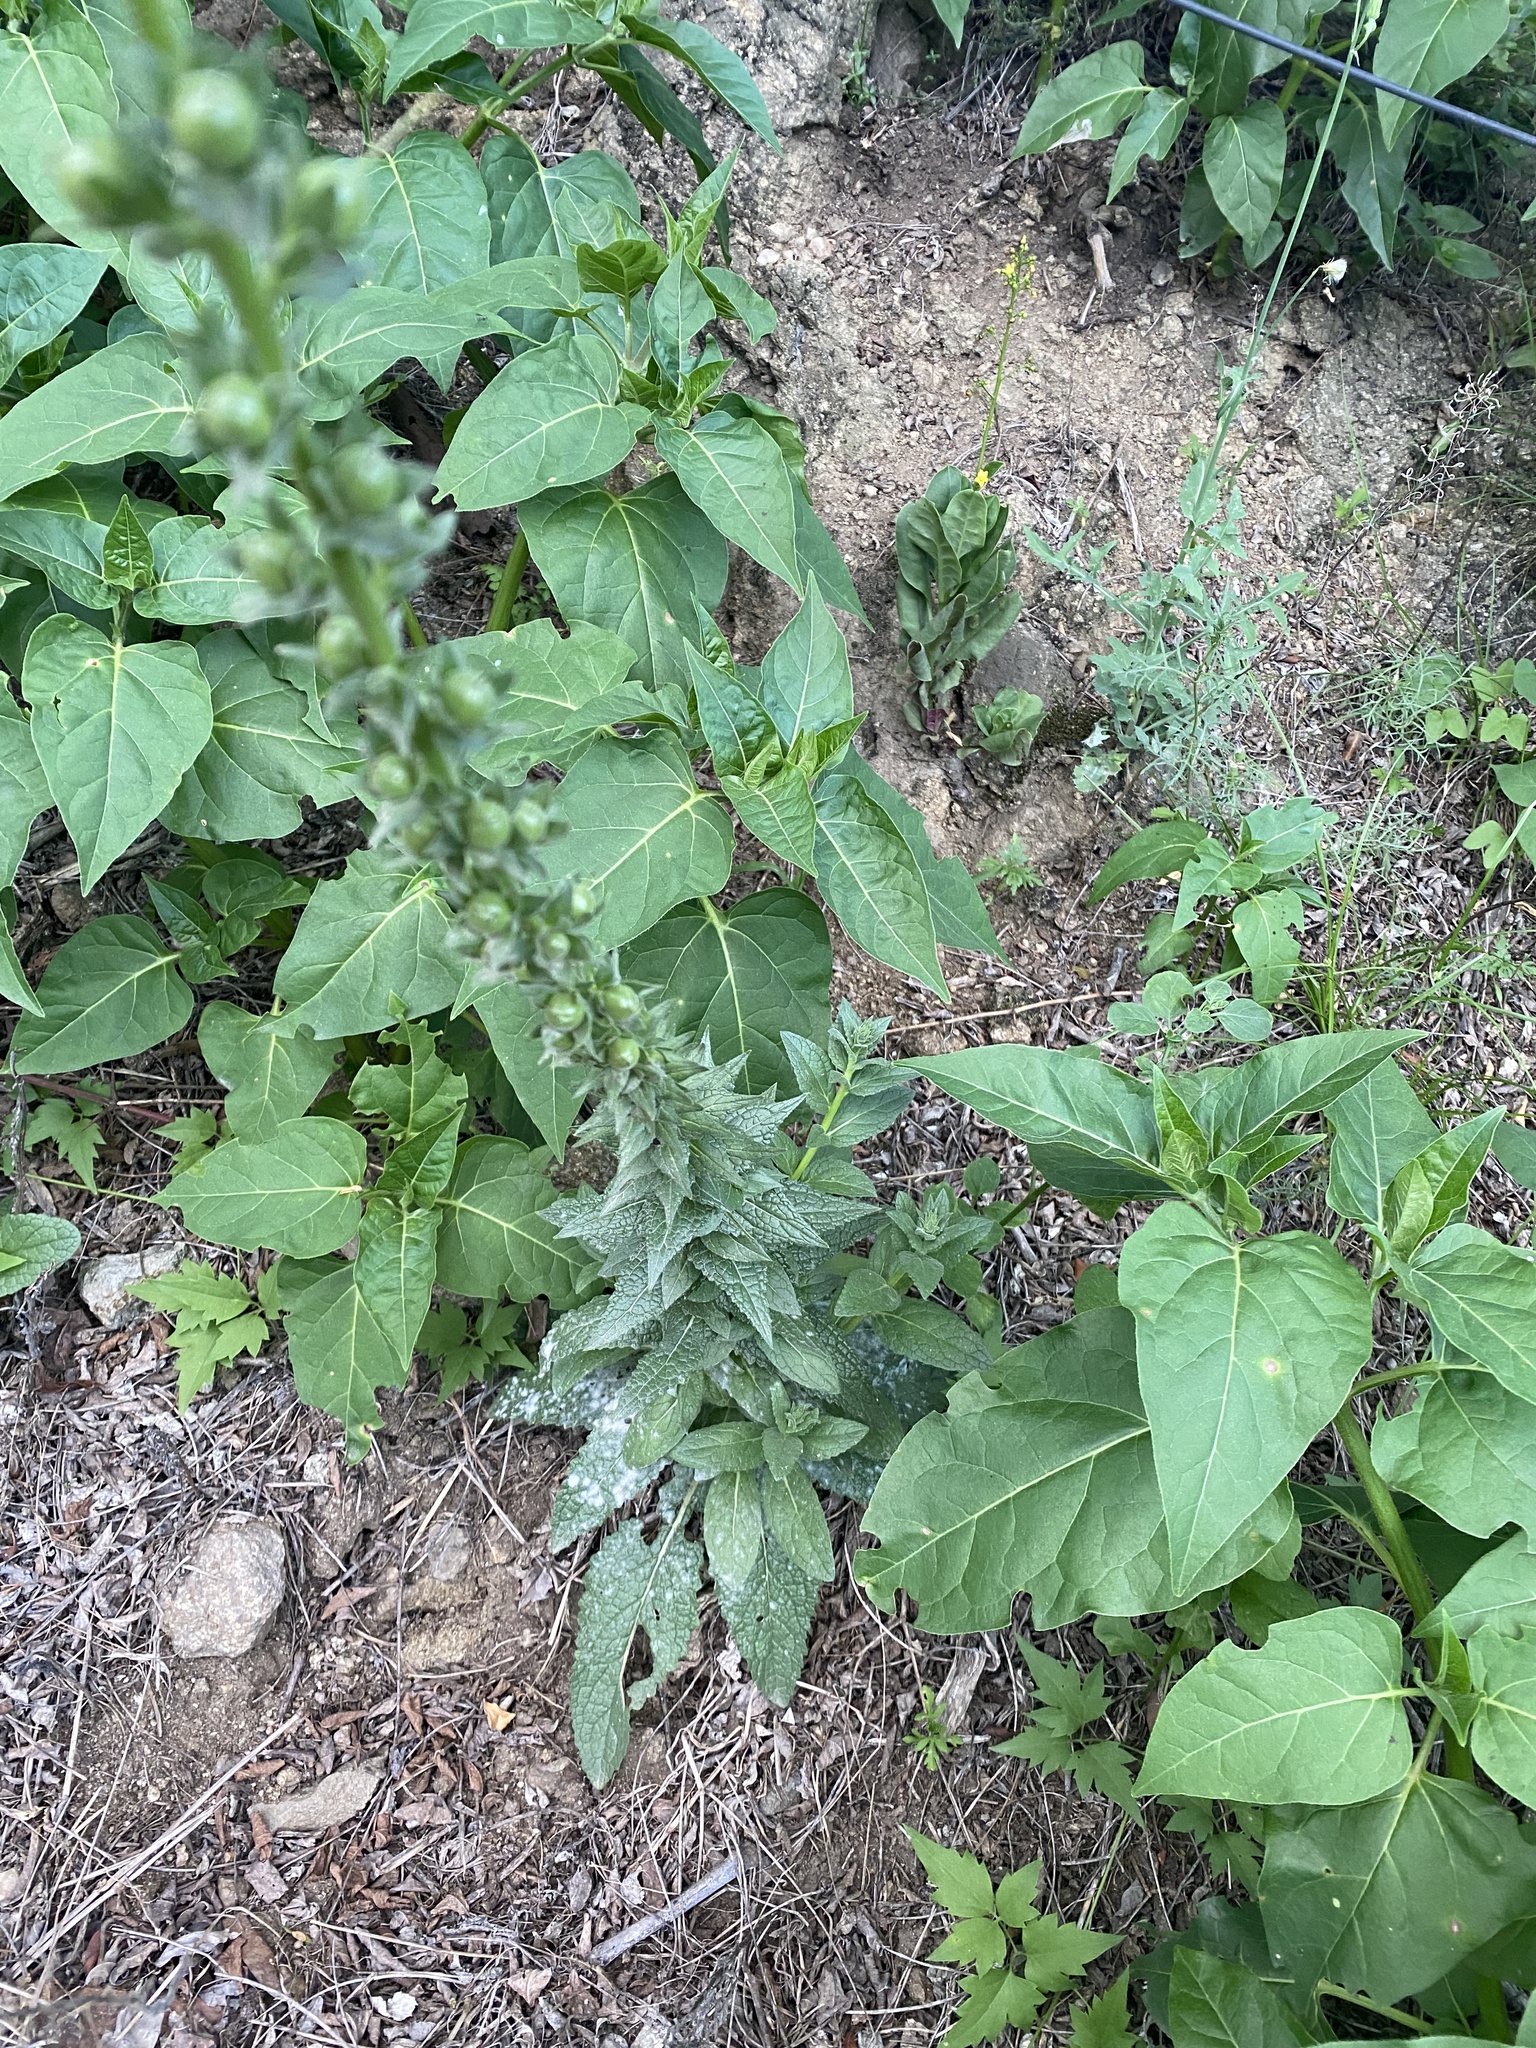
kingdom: Plantae
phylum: Tracheophyta
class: Magnoliopsida
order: Lamiales
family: Scrophulariaceae
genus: Verbascum
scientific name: Verbascum virgatum
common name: Twiggy mullein
